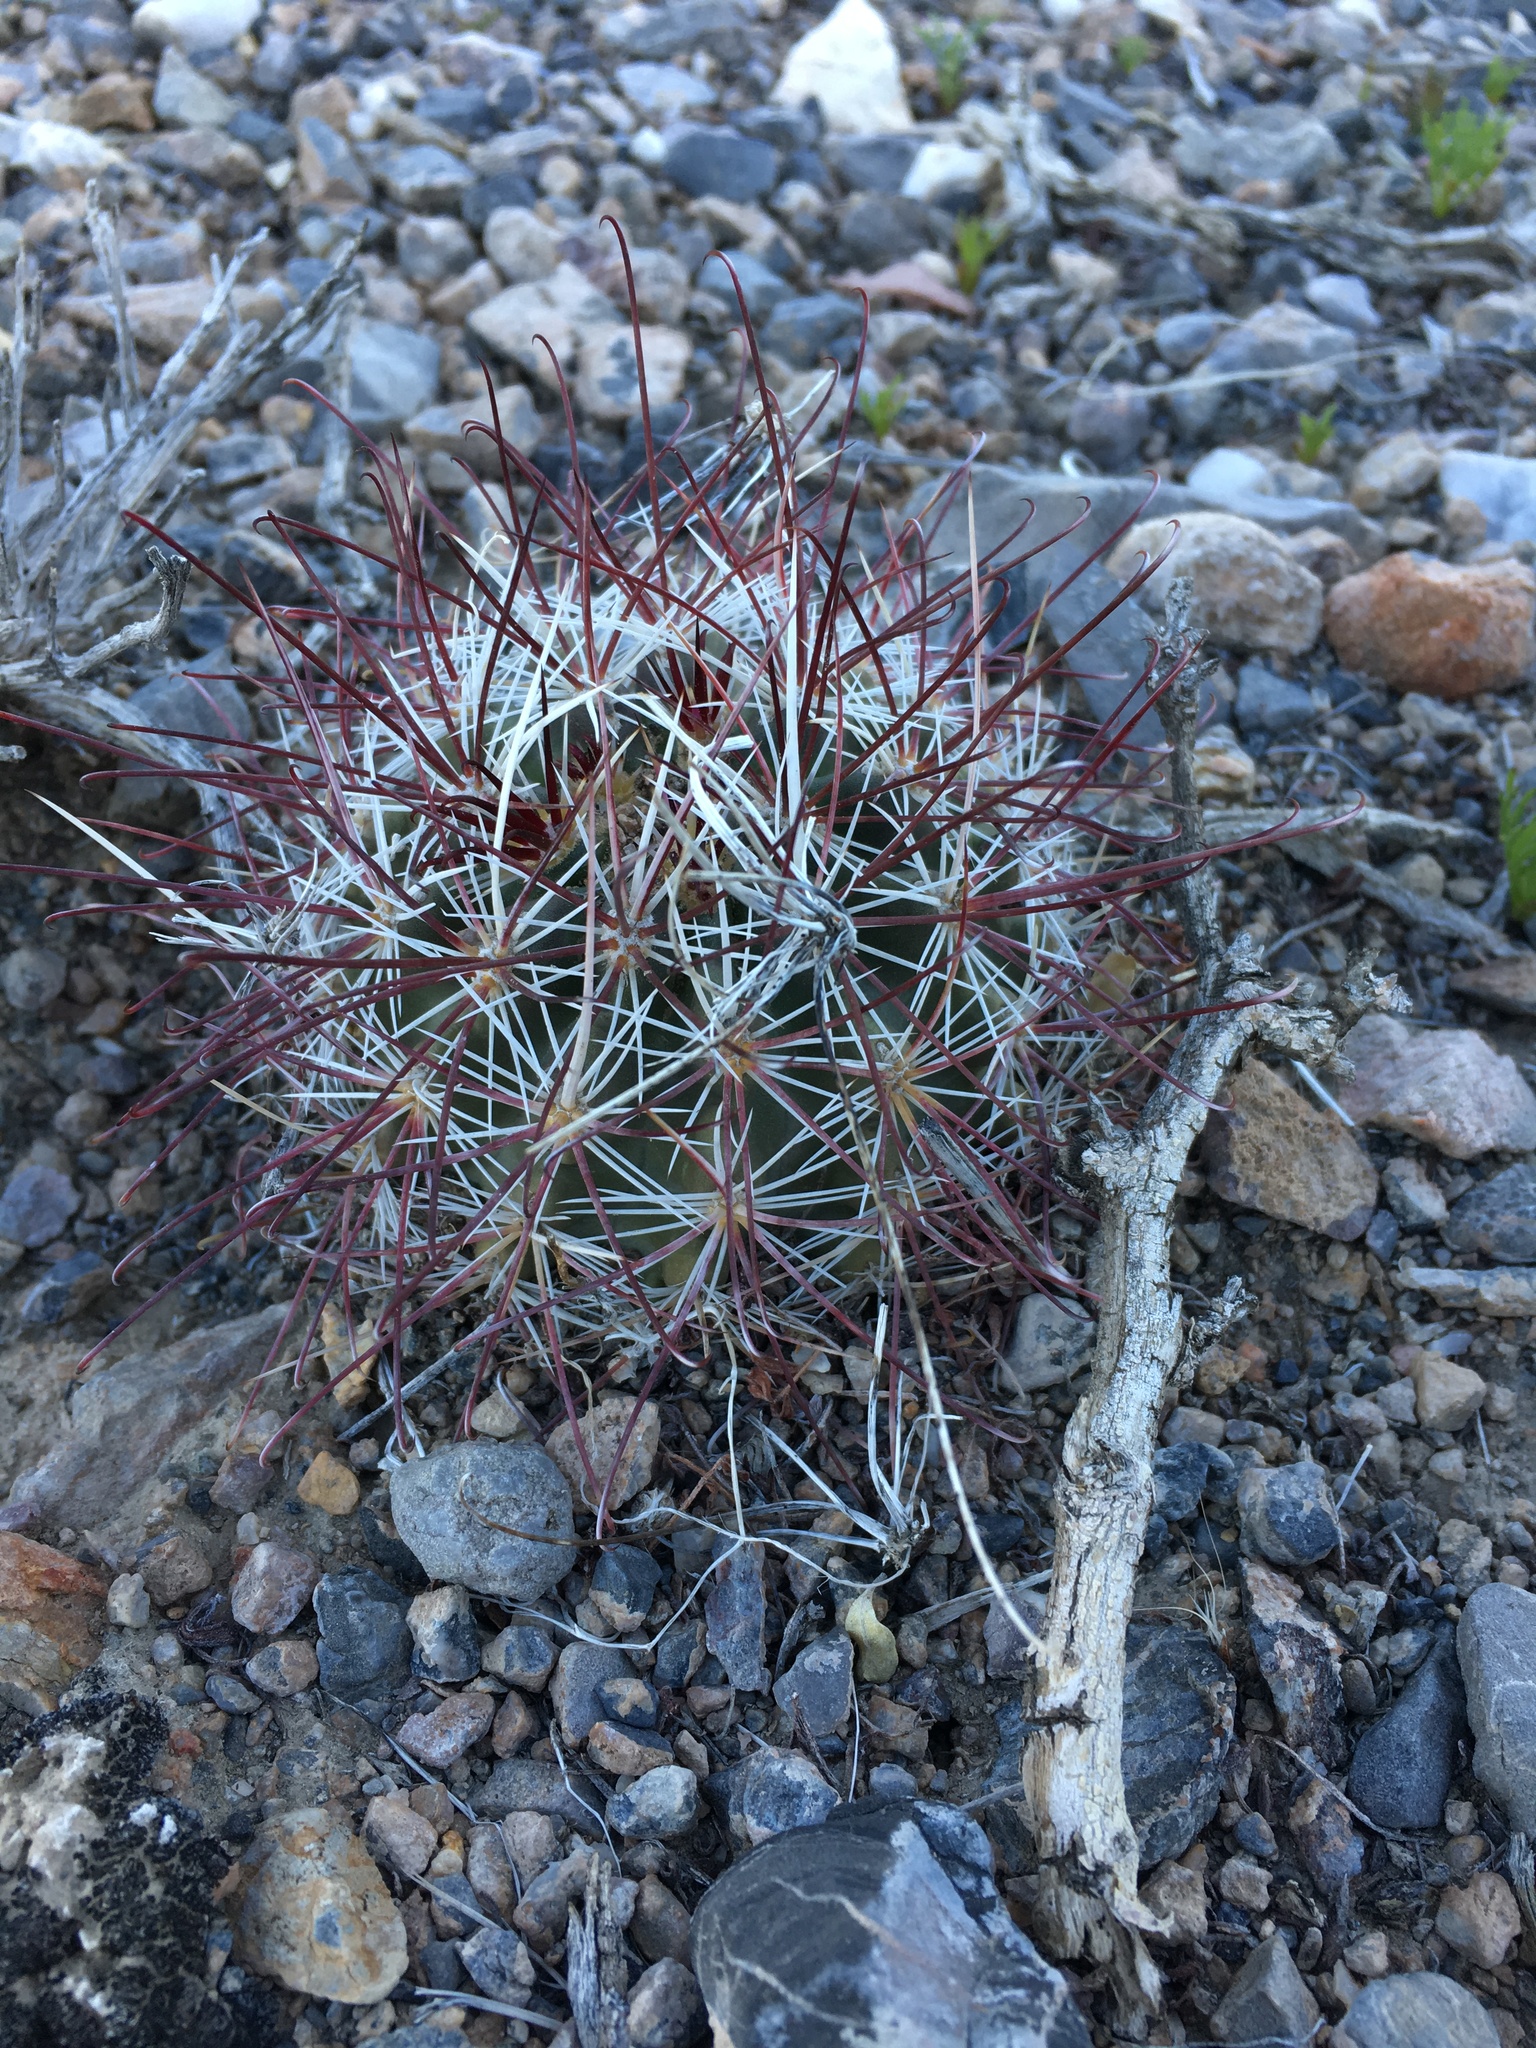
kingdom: Plantae
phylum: Tracheophyta
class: Magnoliopsida
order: Caryophyllales
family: Cactaceae
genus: Sclerocactus
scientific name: Sclerocactus polyancistrus
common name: Mohave fishhook cactus
